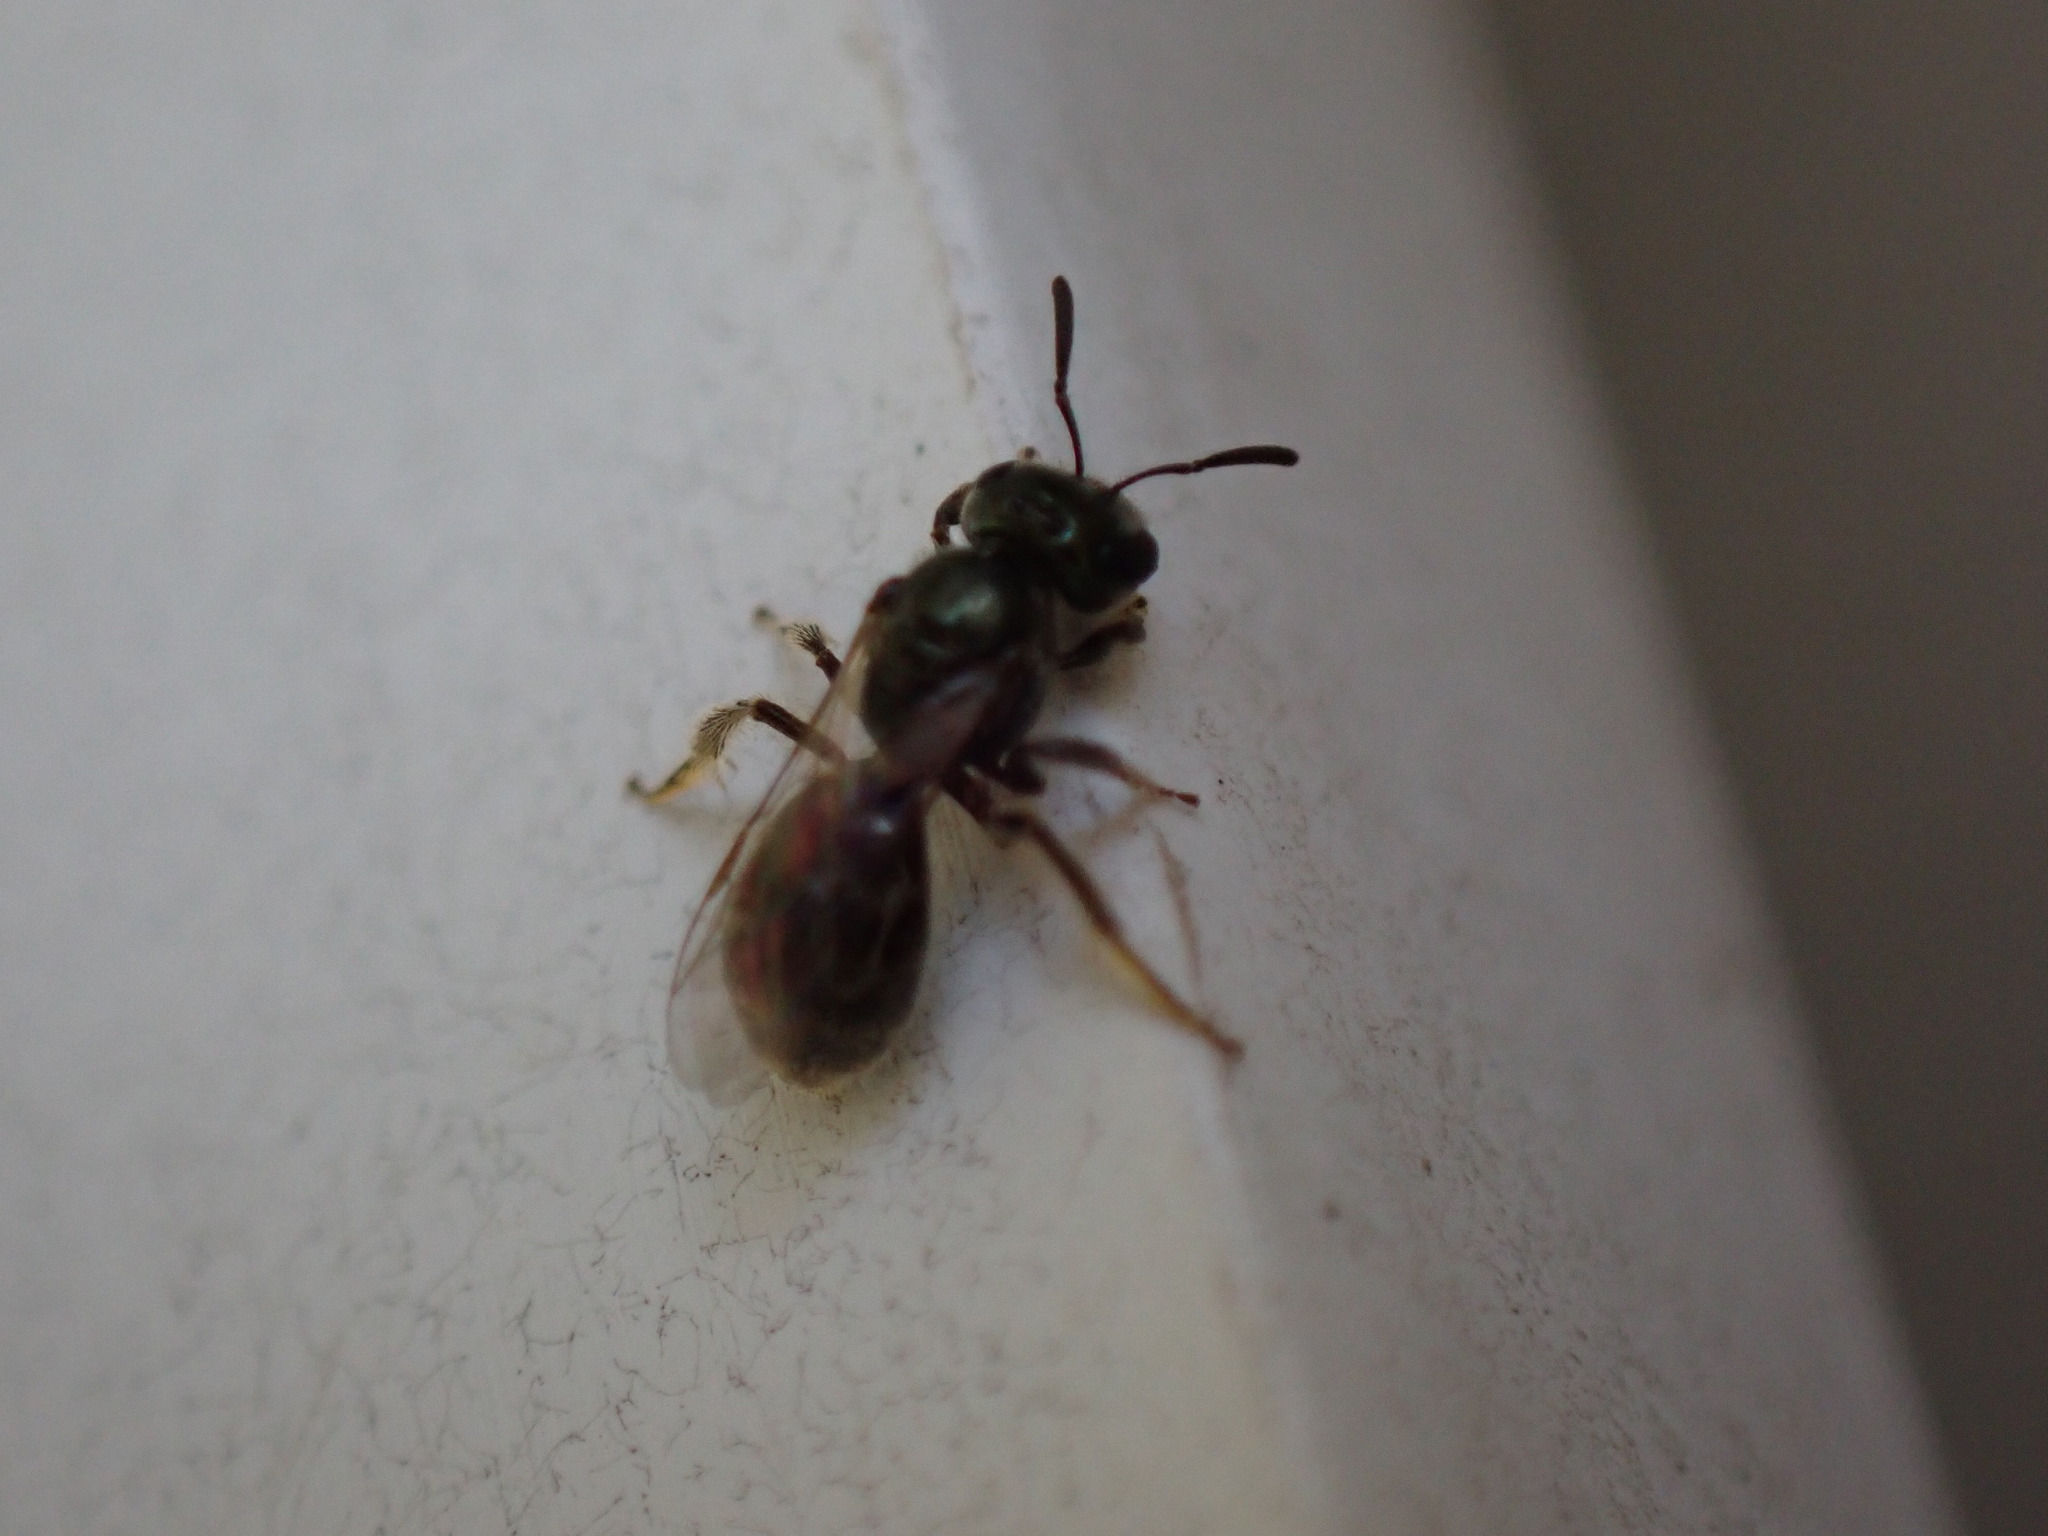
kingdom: Animalia
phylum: Arthropoda
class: Insecta
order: Hymenoptera
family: Halictidae
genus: Lasioglossum
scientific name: Lasioglossum imitatum
